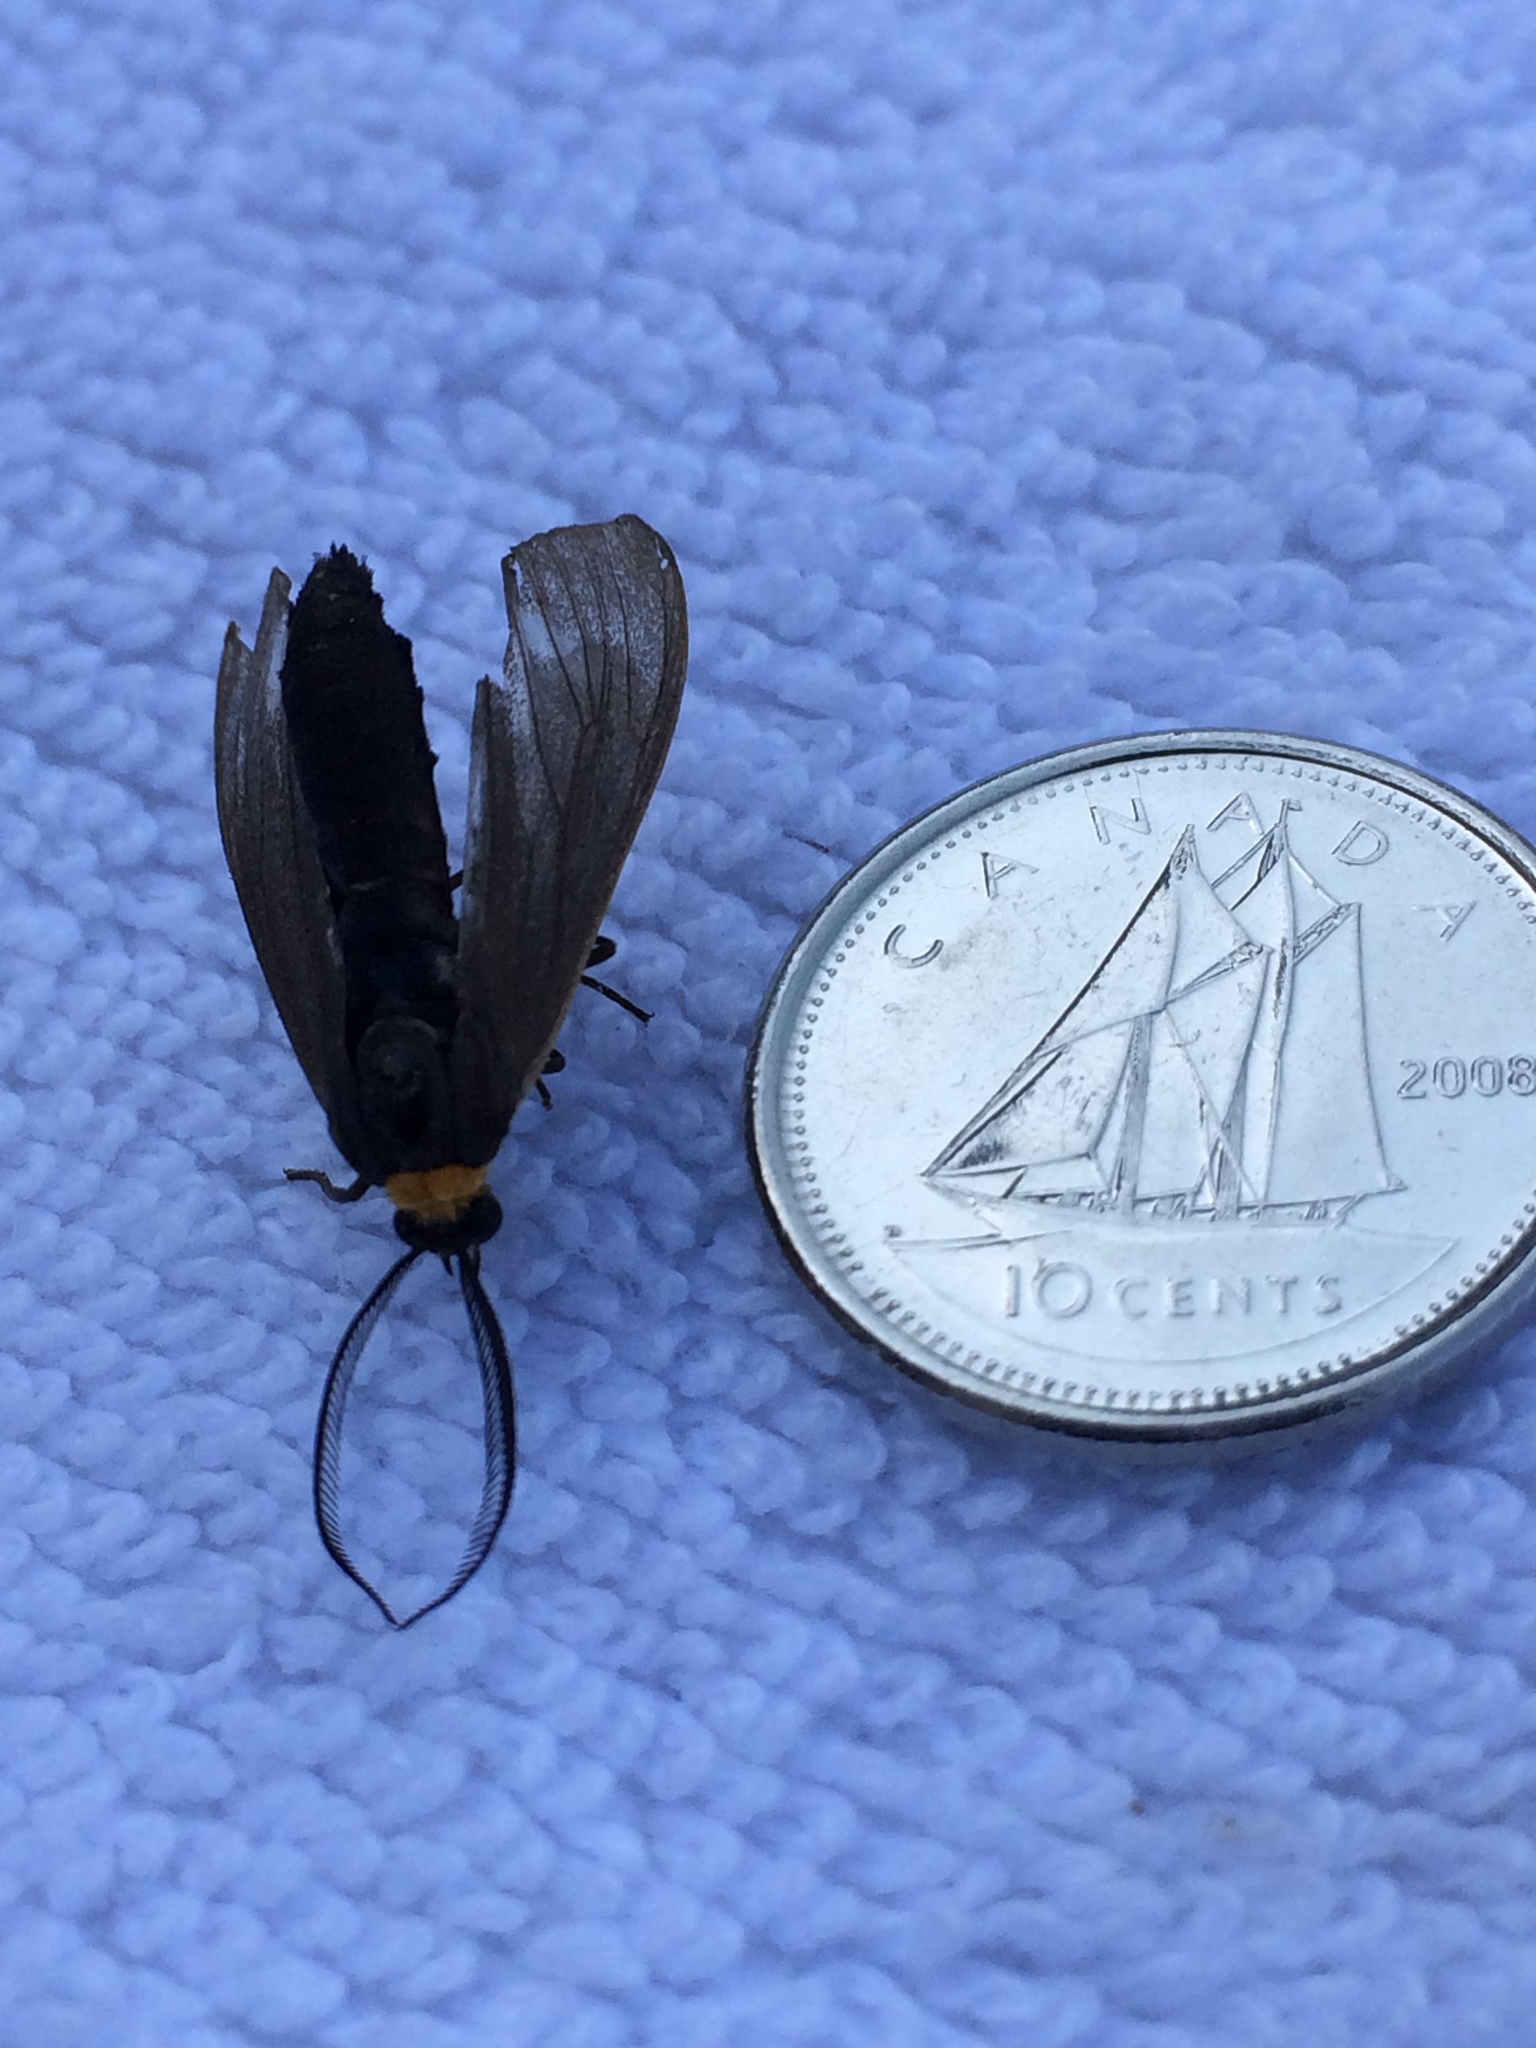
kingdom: Animalia
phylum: Arthropoda
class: Insecta
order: Lepidoptera
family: Zygaenidae
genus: Harrisina
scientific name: Harrisina americana
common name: Grapeleaf skeletonizer moth
